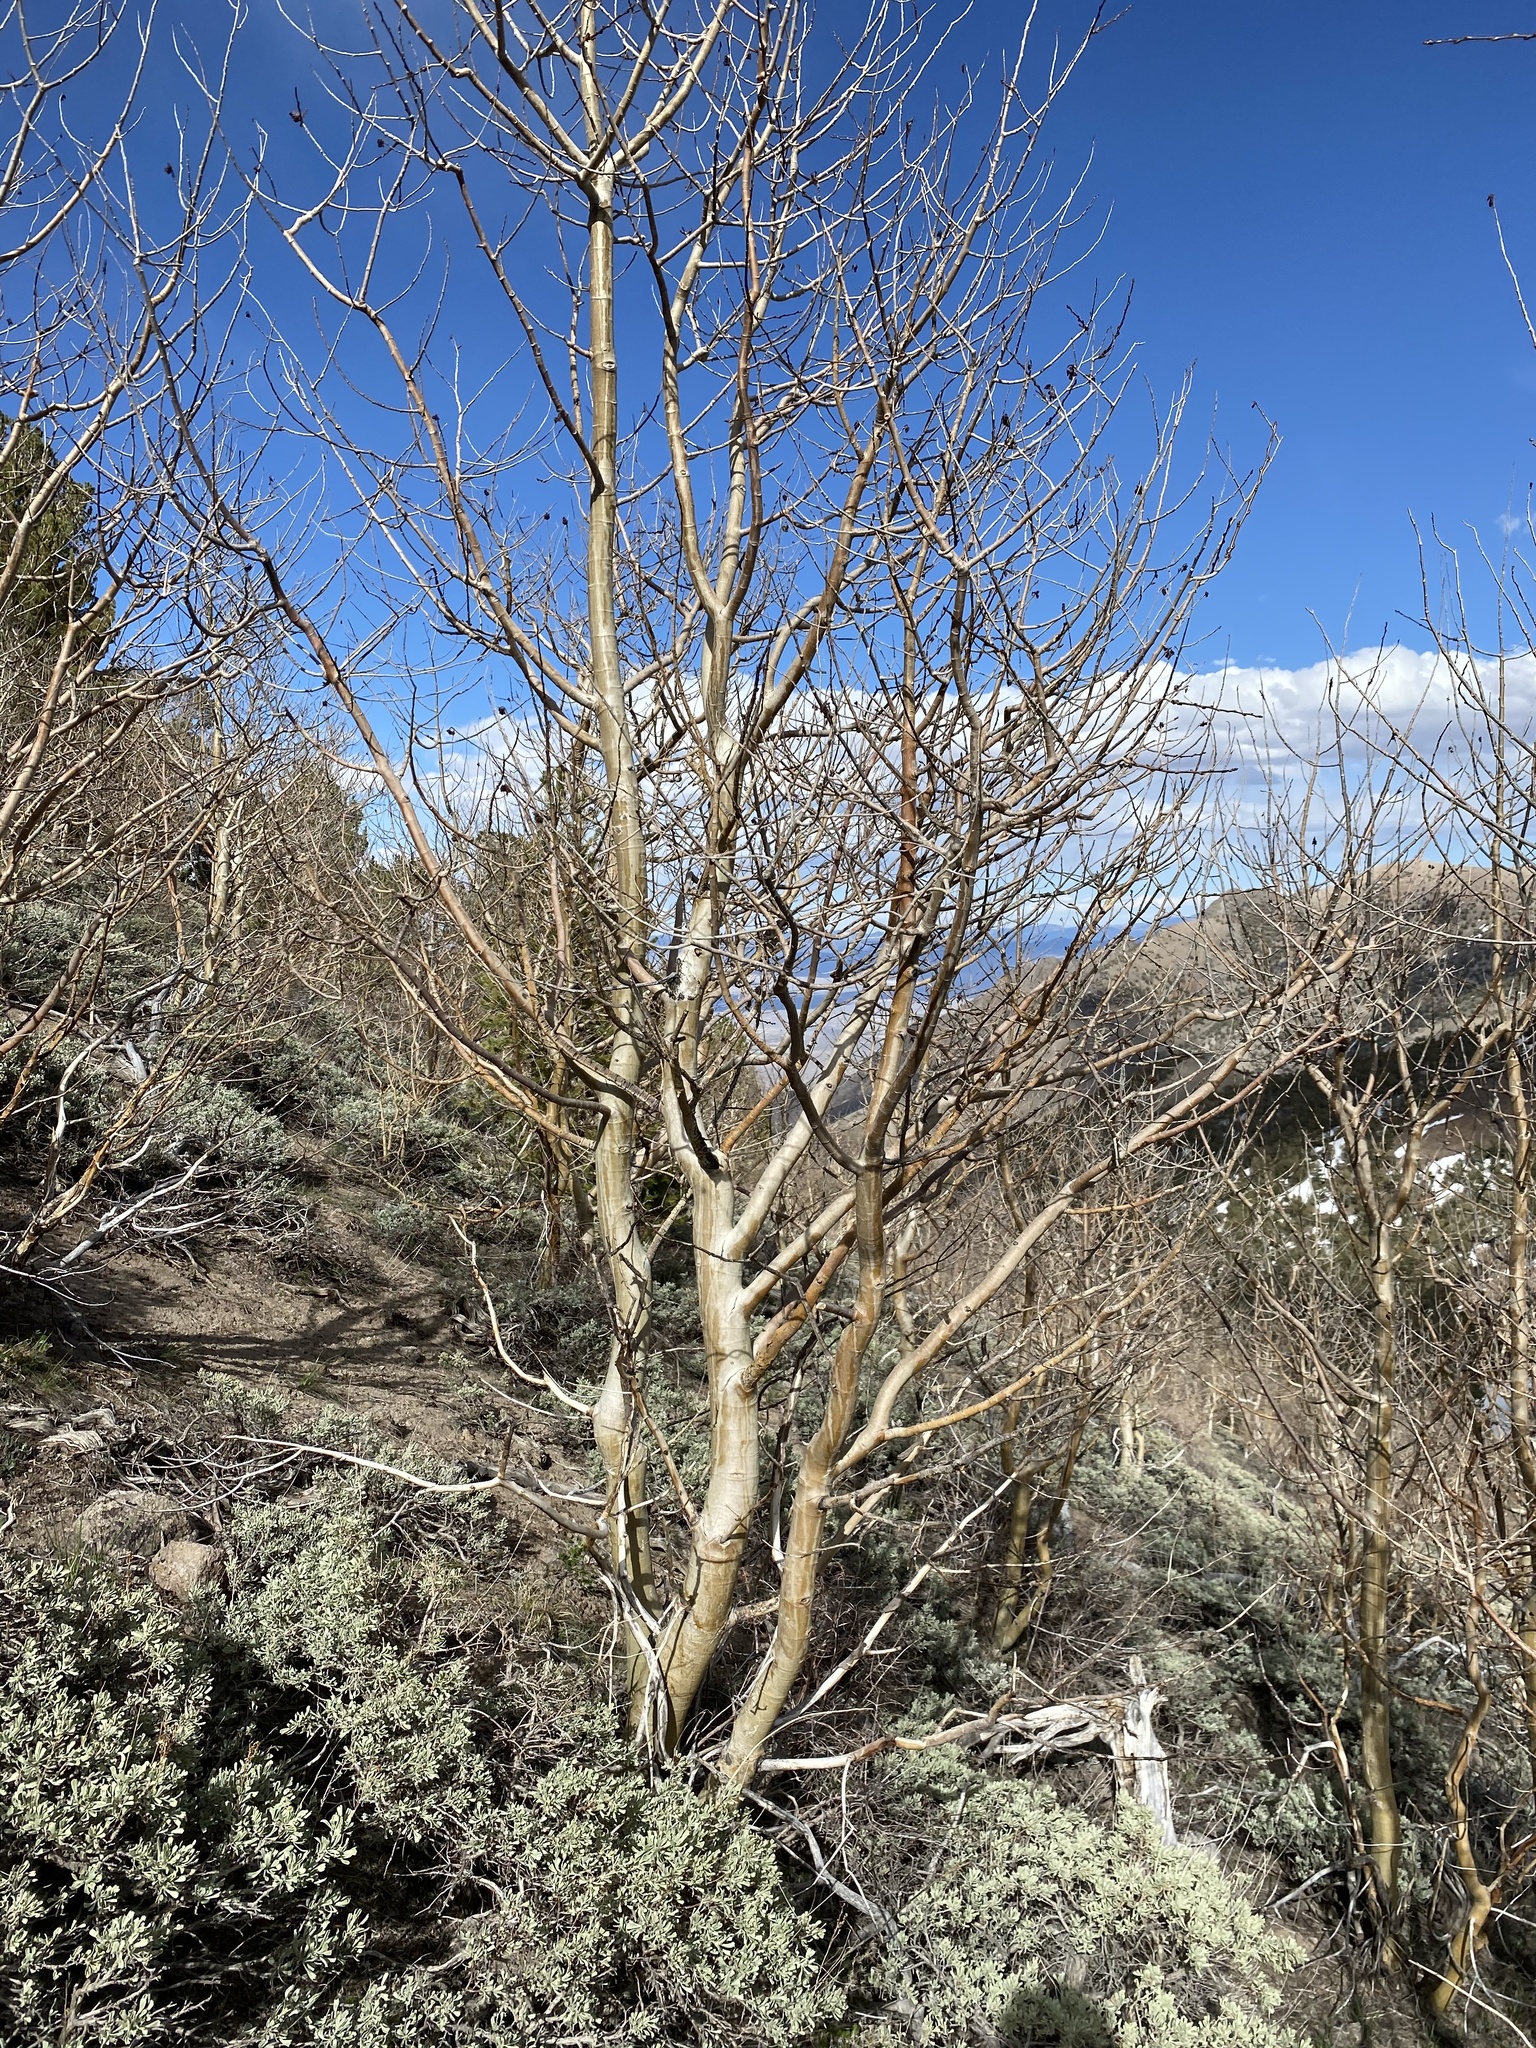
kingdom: Plantae
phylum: Tracheophyta
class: Magnoliopsida
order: Malpighiales
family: Salicaceae
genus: Populus
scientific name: Populus tremuloides
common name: Quaking aspen
